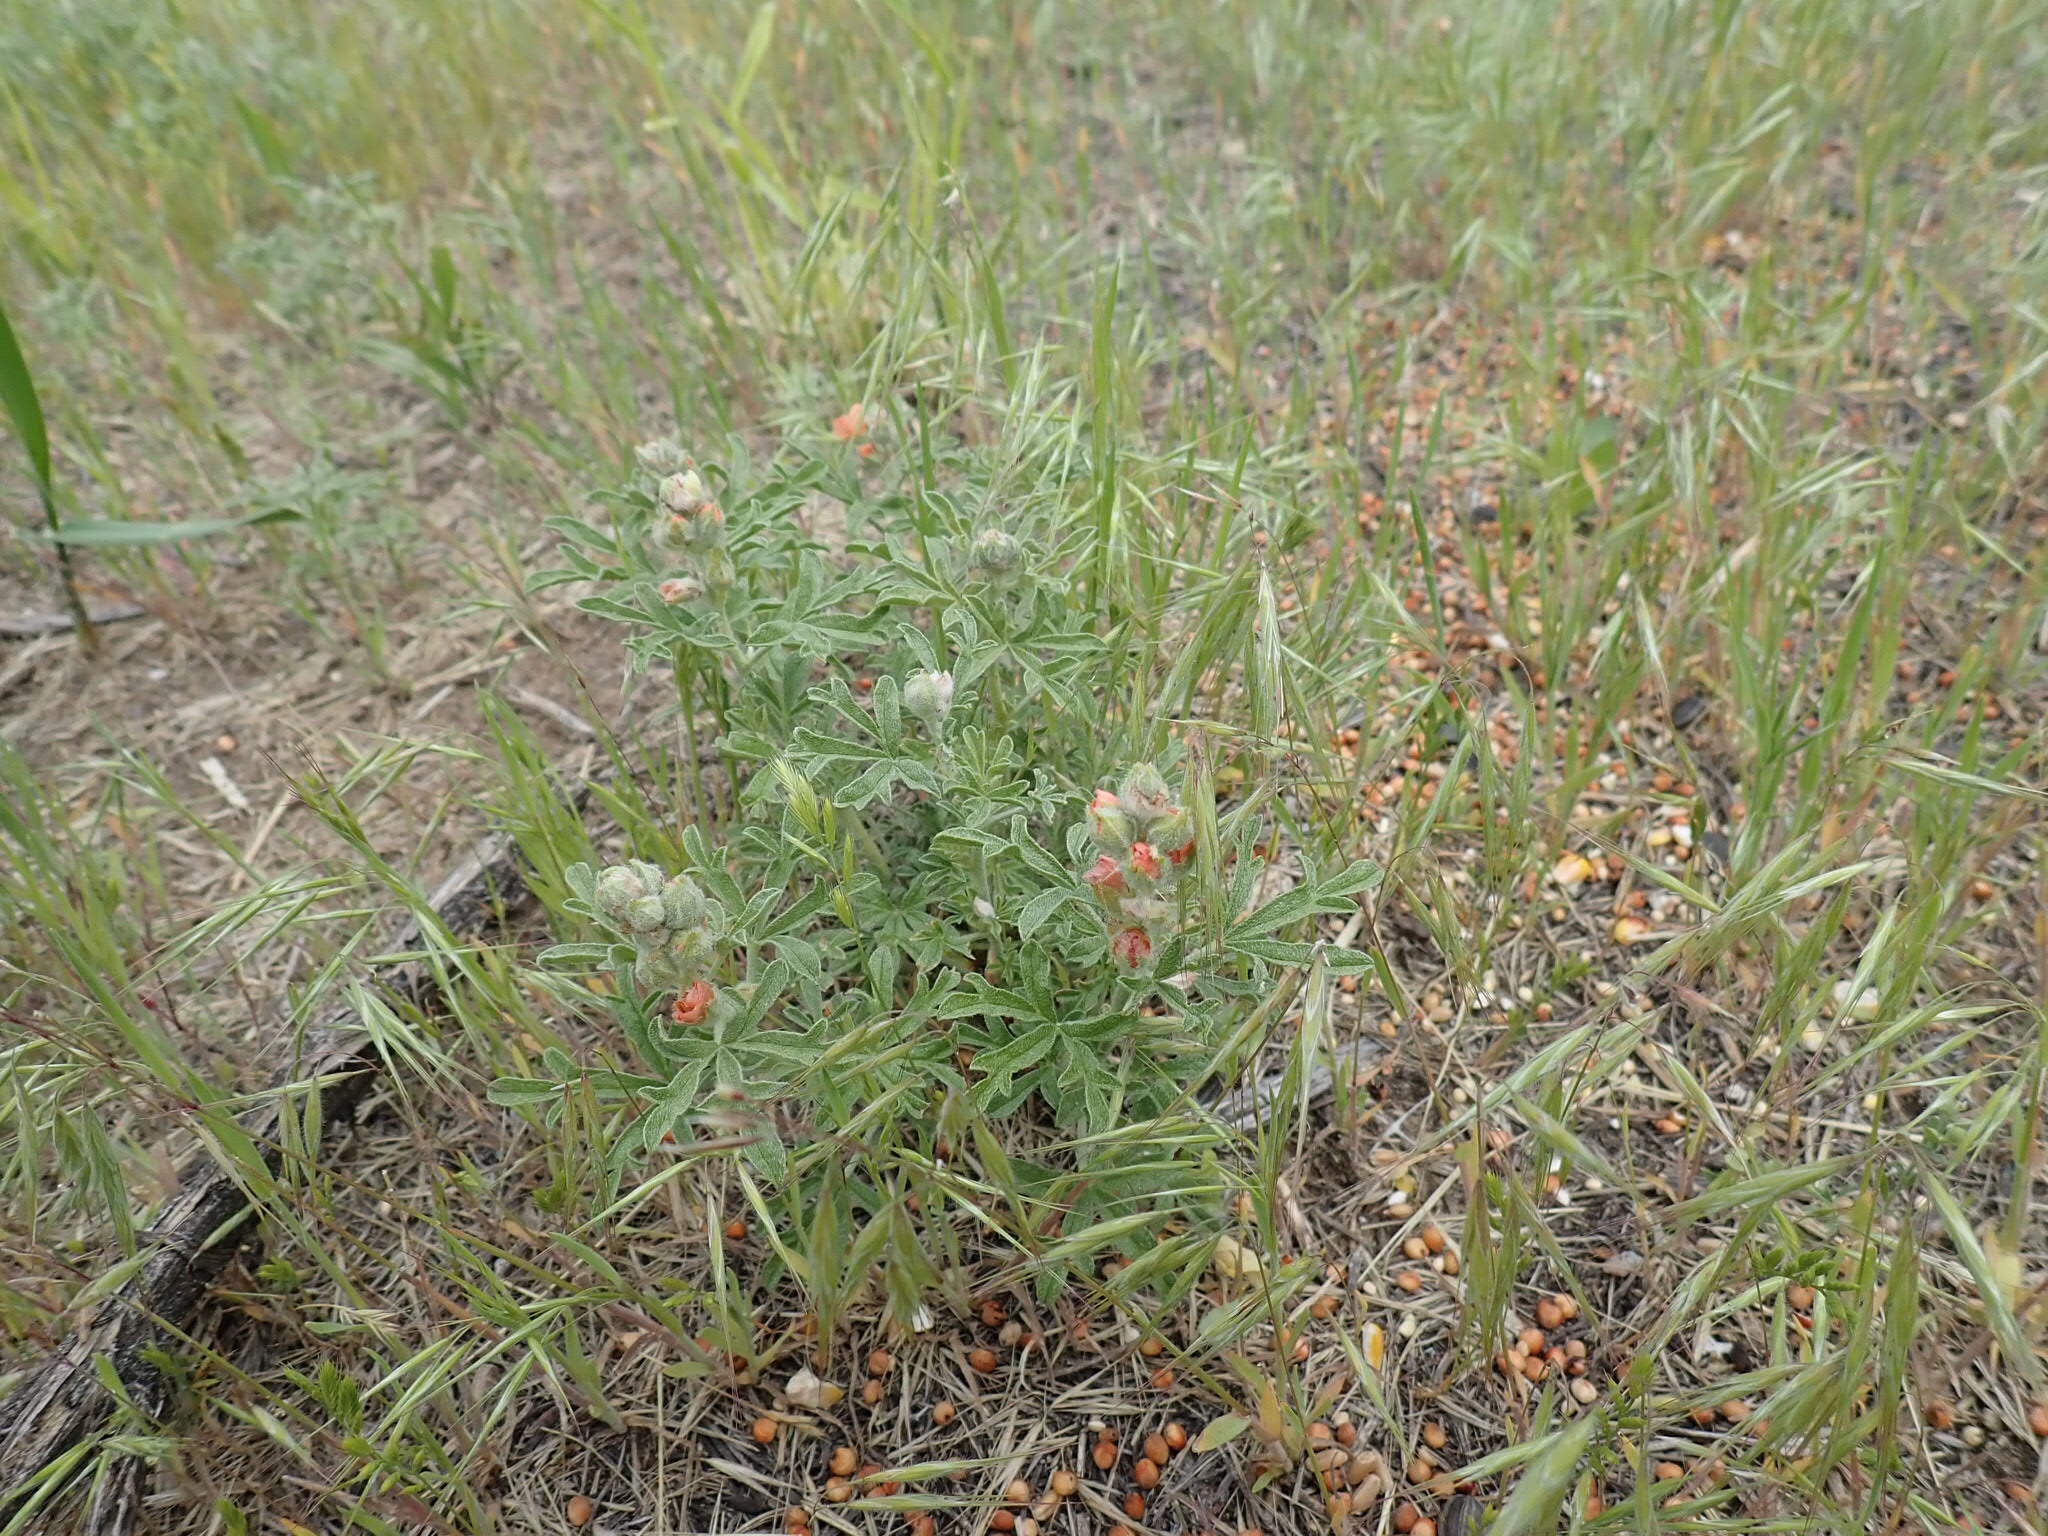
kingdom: Plantae
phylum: Tracheophyta
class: Magnoliopsida
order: Malvales
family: Malvaceae
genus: Sphaeralcea
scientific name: Sphaeralcea coccinea
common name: Moss-rose
